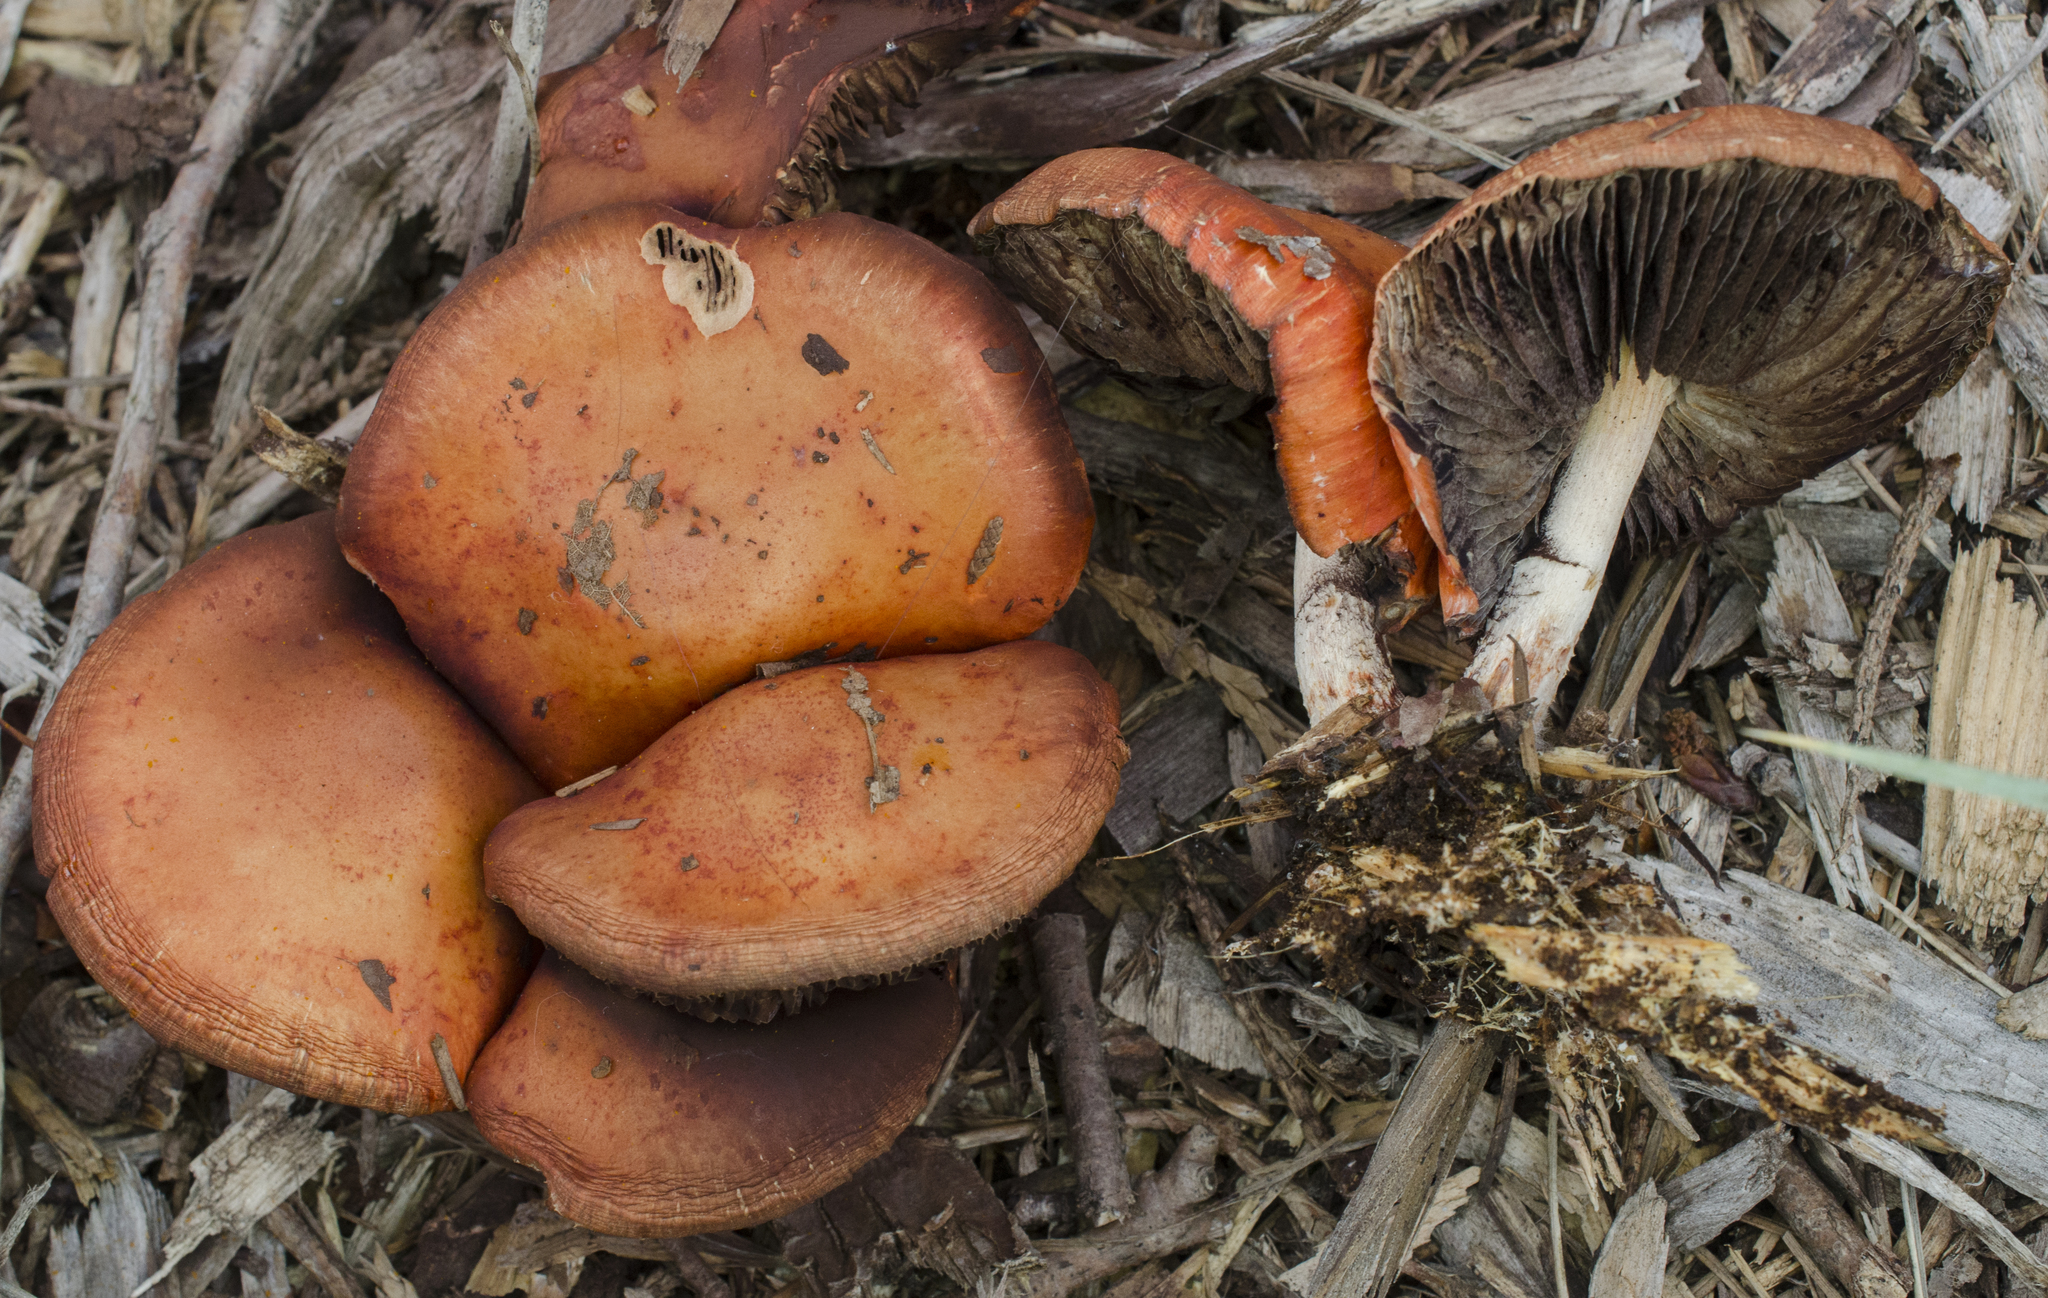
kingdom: Fungi
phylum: Basidiomycota
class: Agaricomycetes
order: Agaricales
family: Strophariaceae
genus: Leratiomyces
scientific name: Leratiomyces ceres
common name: Redlead roundhead
